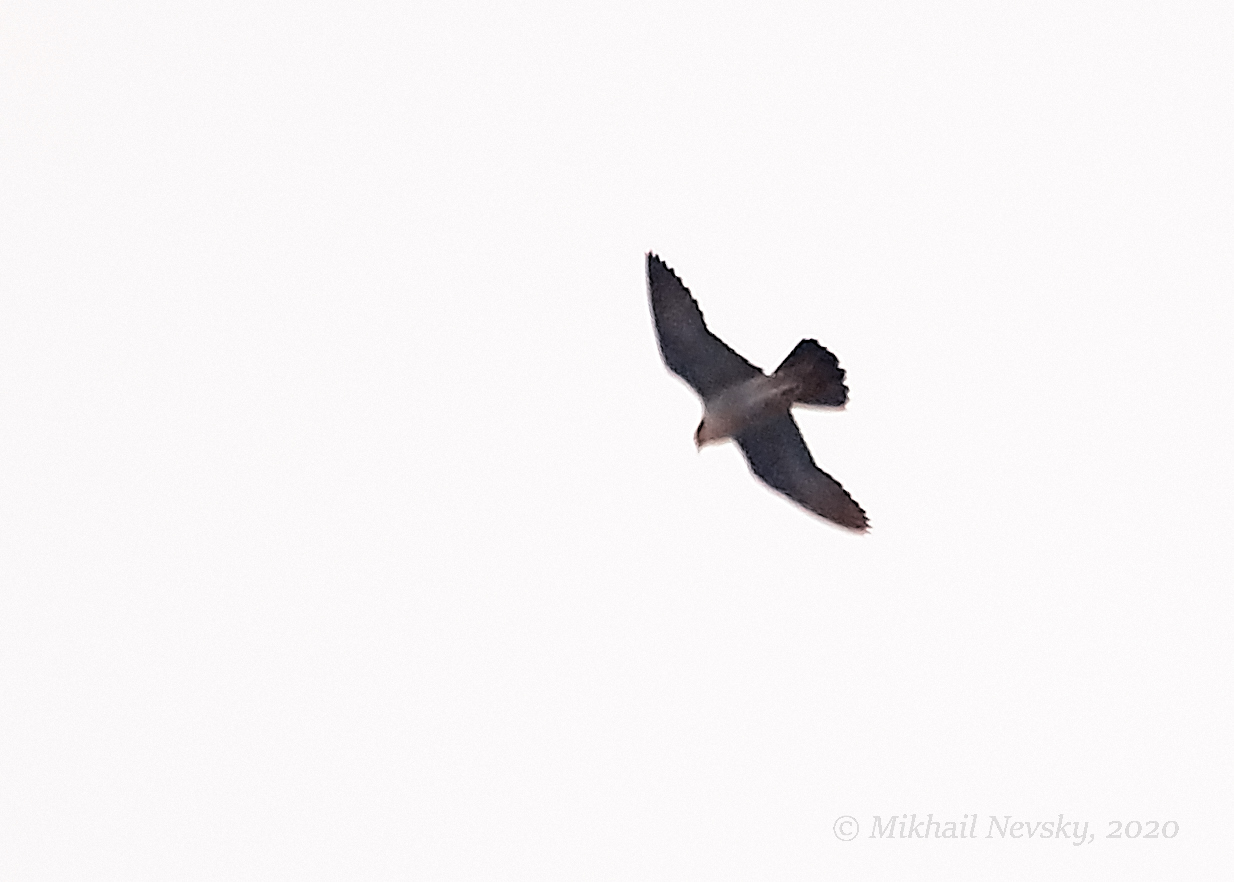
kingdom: Animalia
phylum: Chordata
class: Aves
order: Falconiformes
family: Falconidae
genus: Falco
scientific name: Falco peregrinus
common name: Peregrine falcon
